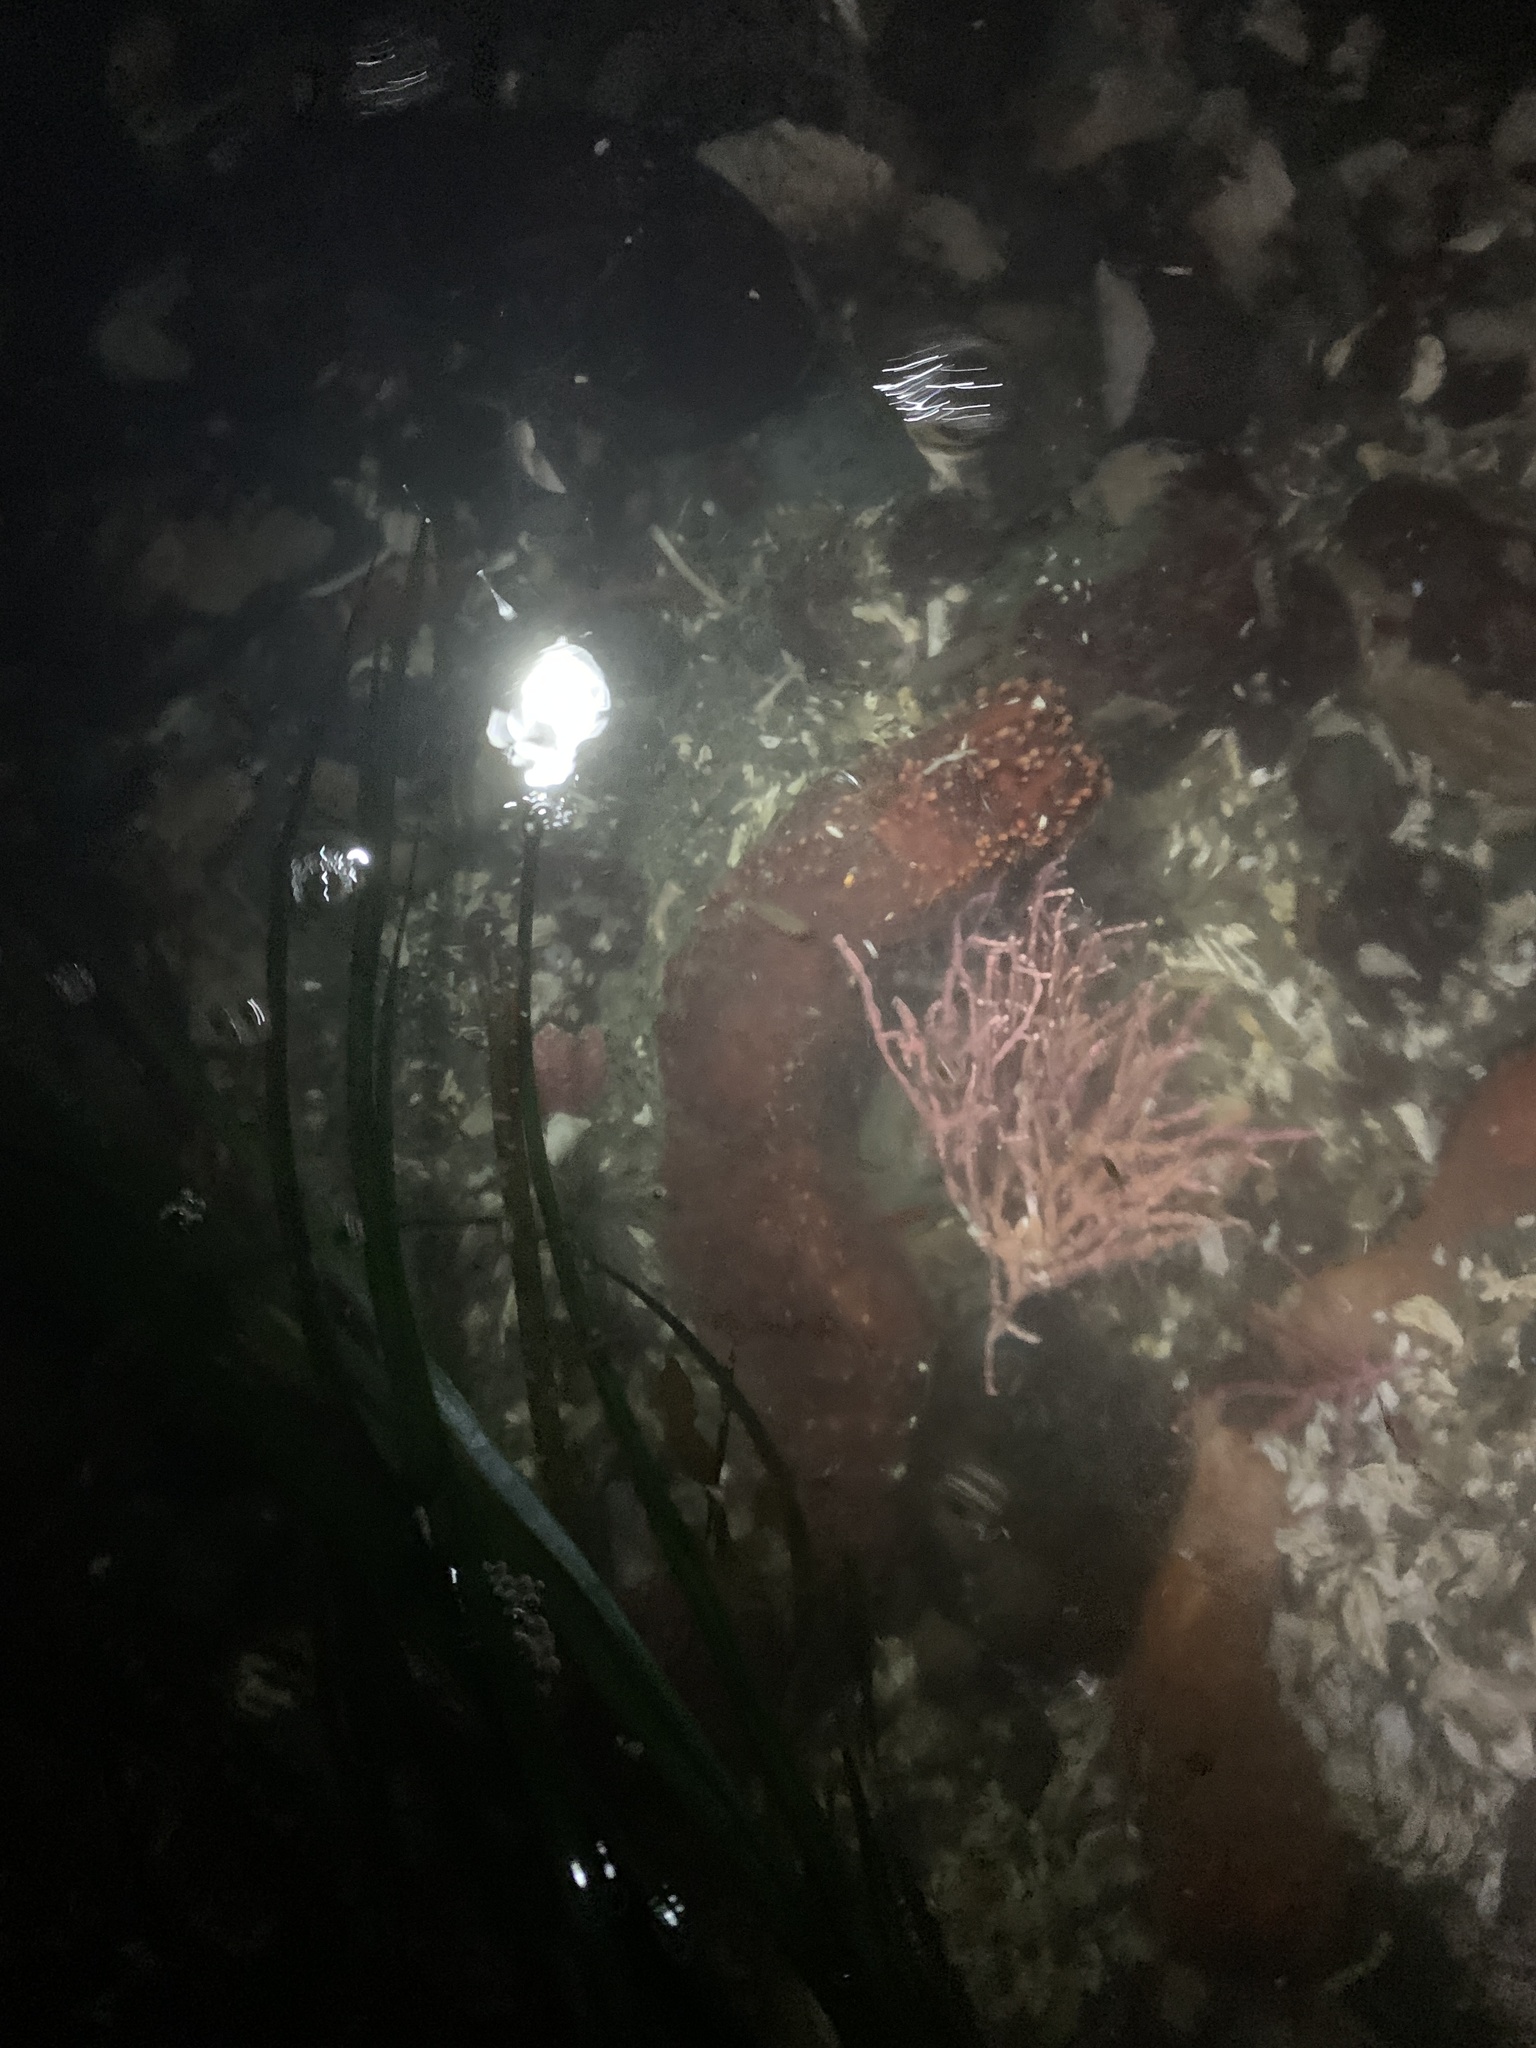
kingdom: Animalia
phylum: Echinodermata
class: Holothuroidea
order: Dendrochirotida
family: Cucumariidae
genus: Cucumaria
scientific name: Cucumaria miniata
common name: Orange sea cucumber
